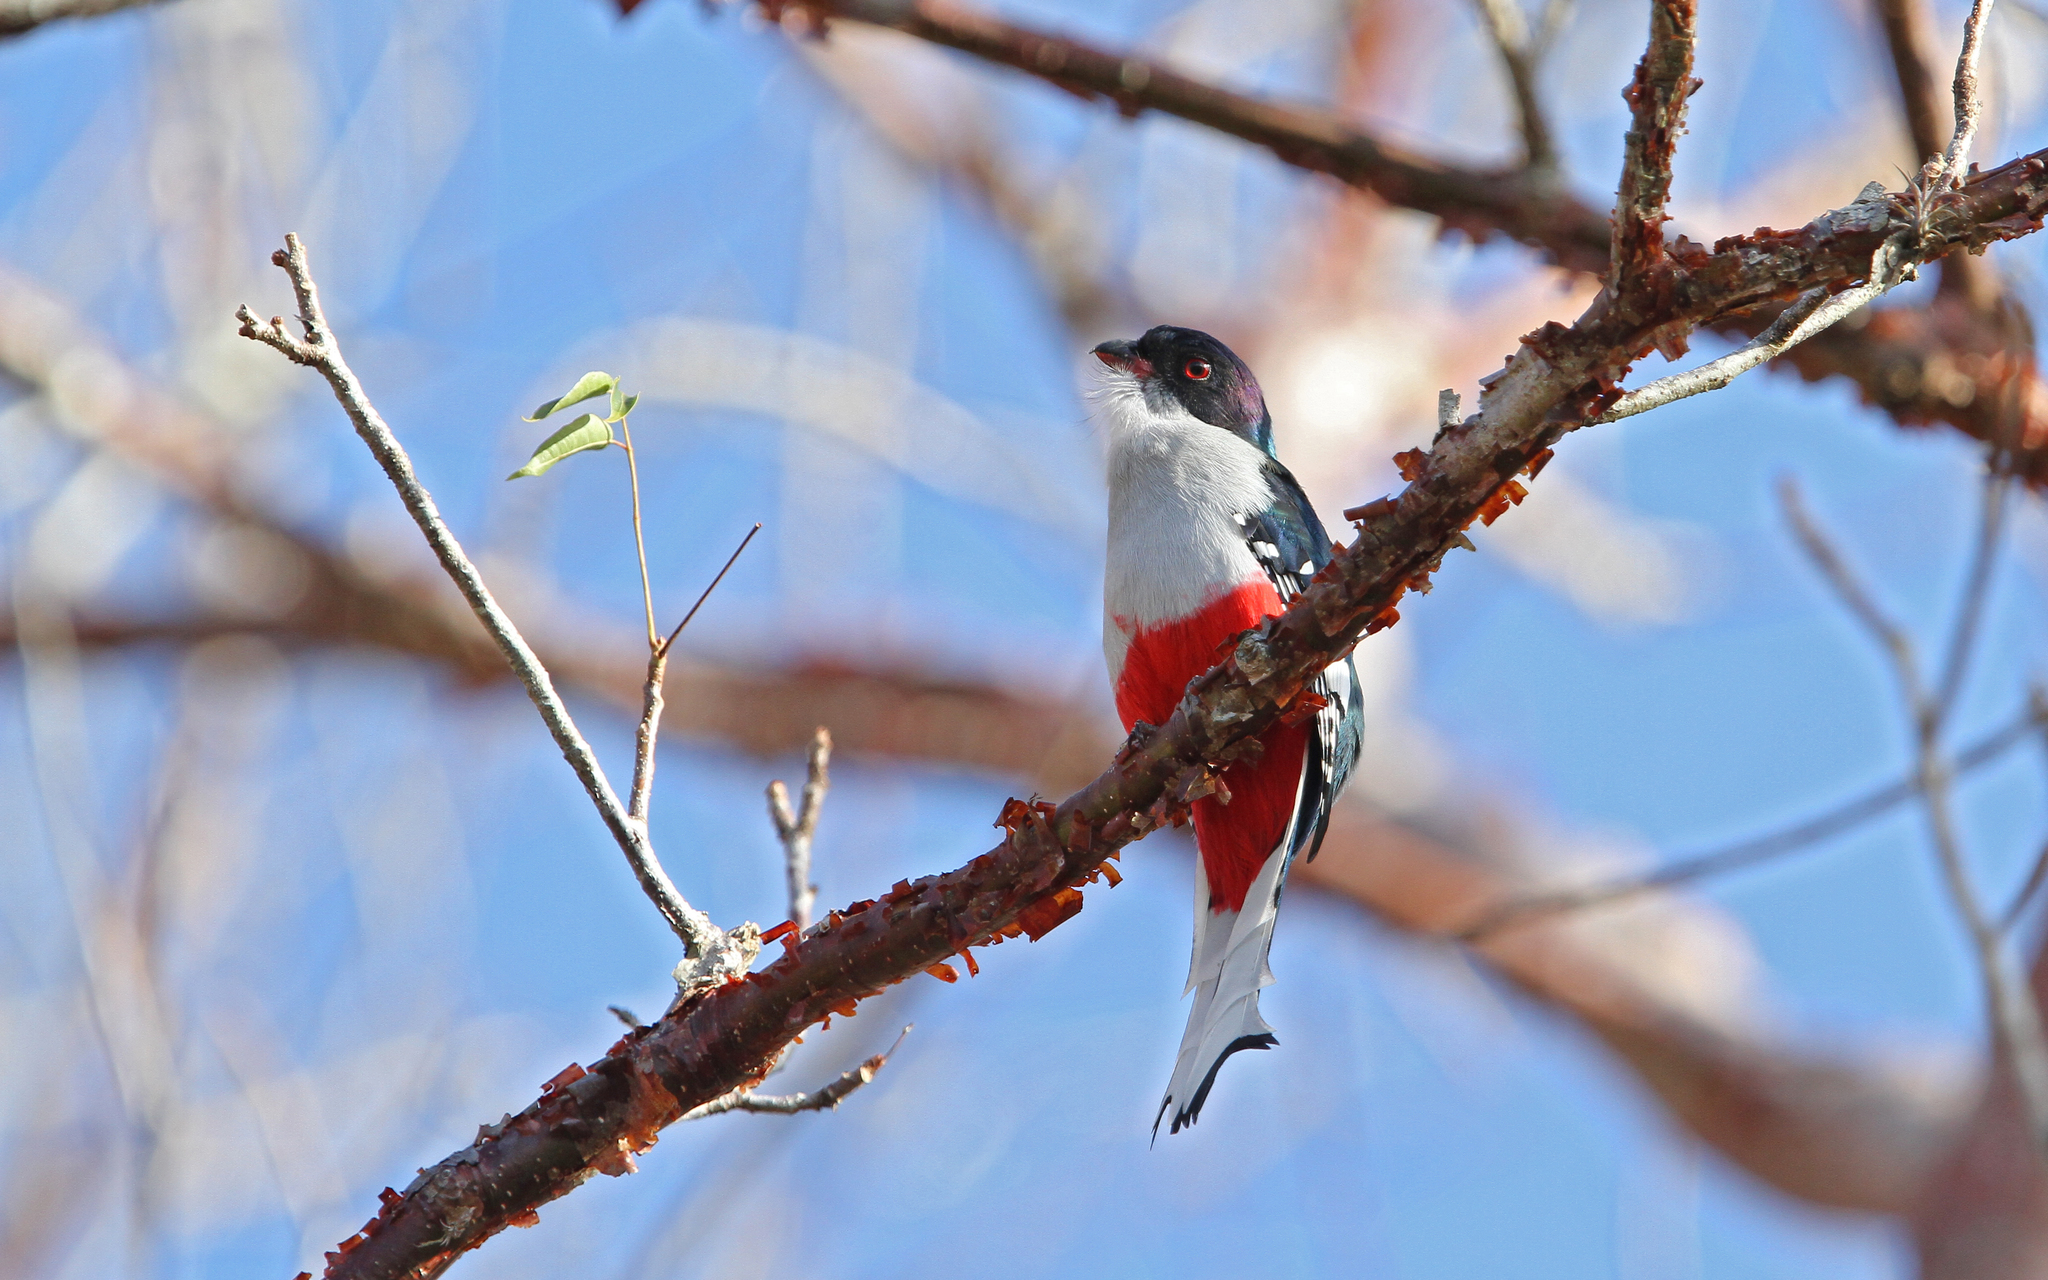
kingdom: Animalia
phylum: Chordata
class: Aves
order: Trogoniformes
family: Trogonidae
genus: Priotelus
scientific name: Priotelus temnurus
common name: Cuban trogon
